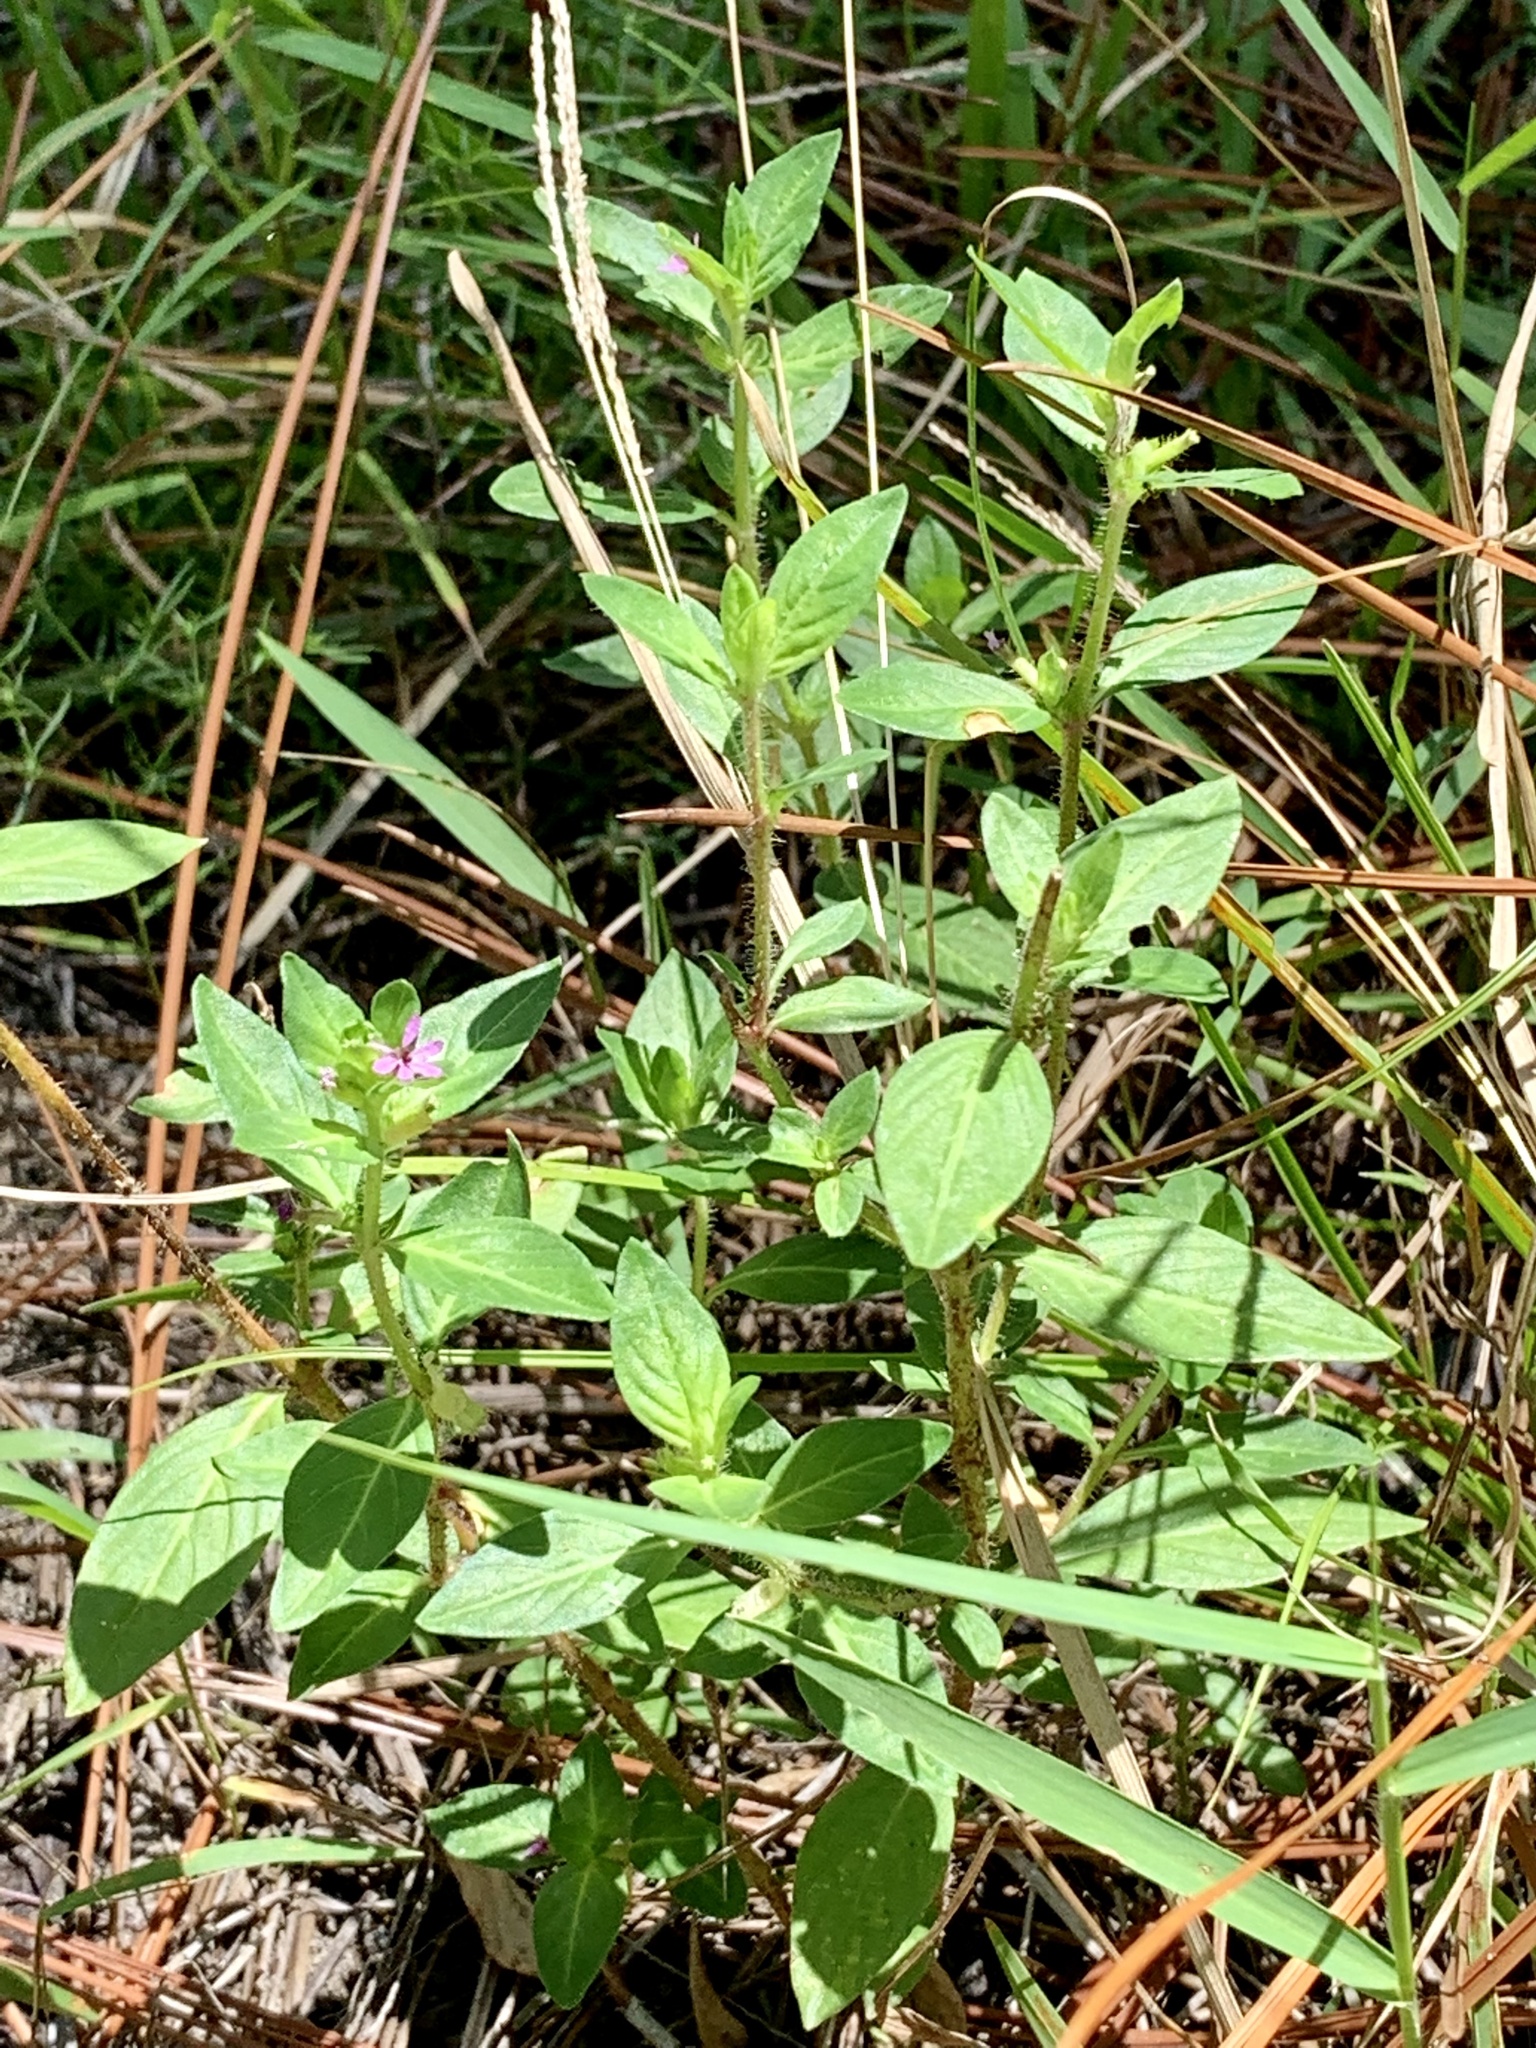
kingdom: Plantae
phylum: Tracheophyta
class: Magnoliopsida
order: Myrtales
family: Lythraceae
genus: Cuphea
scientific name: Cuphea carthagenensis
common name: Colombian waxweed
